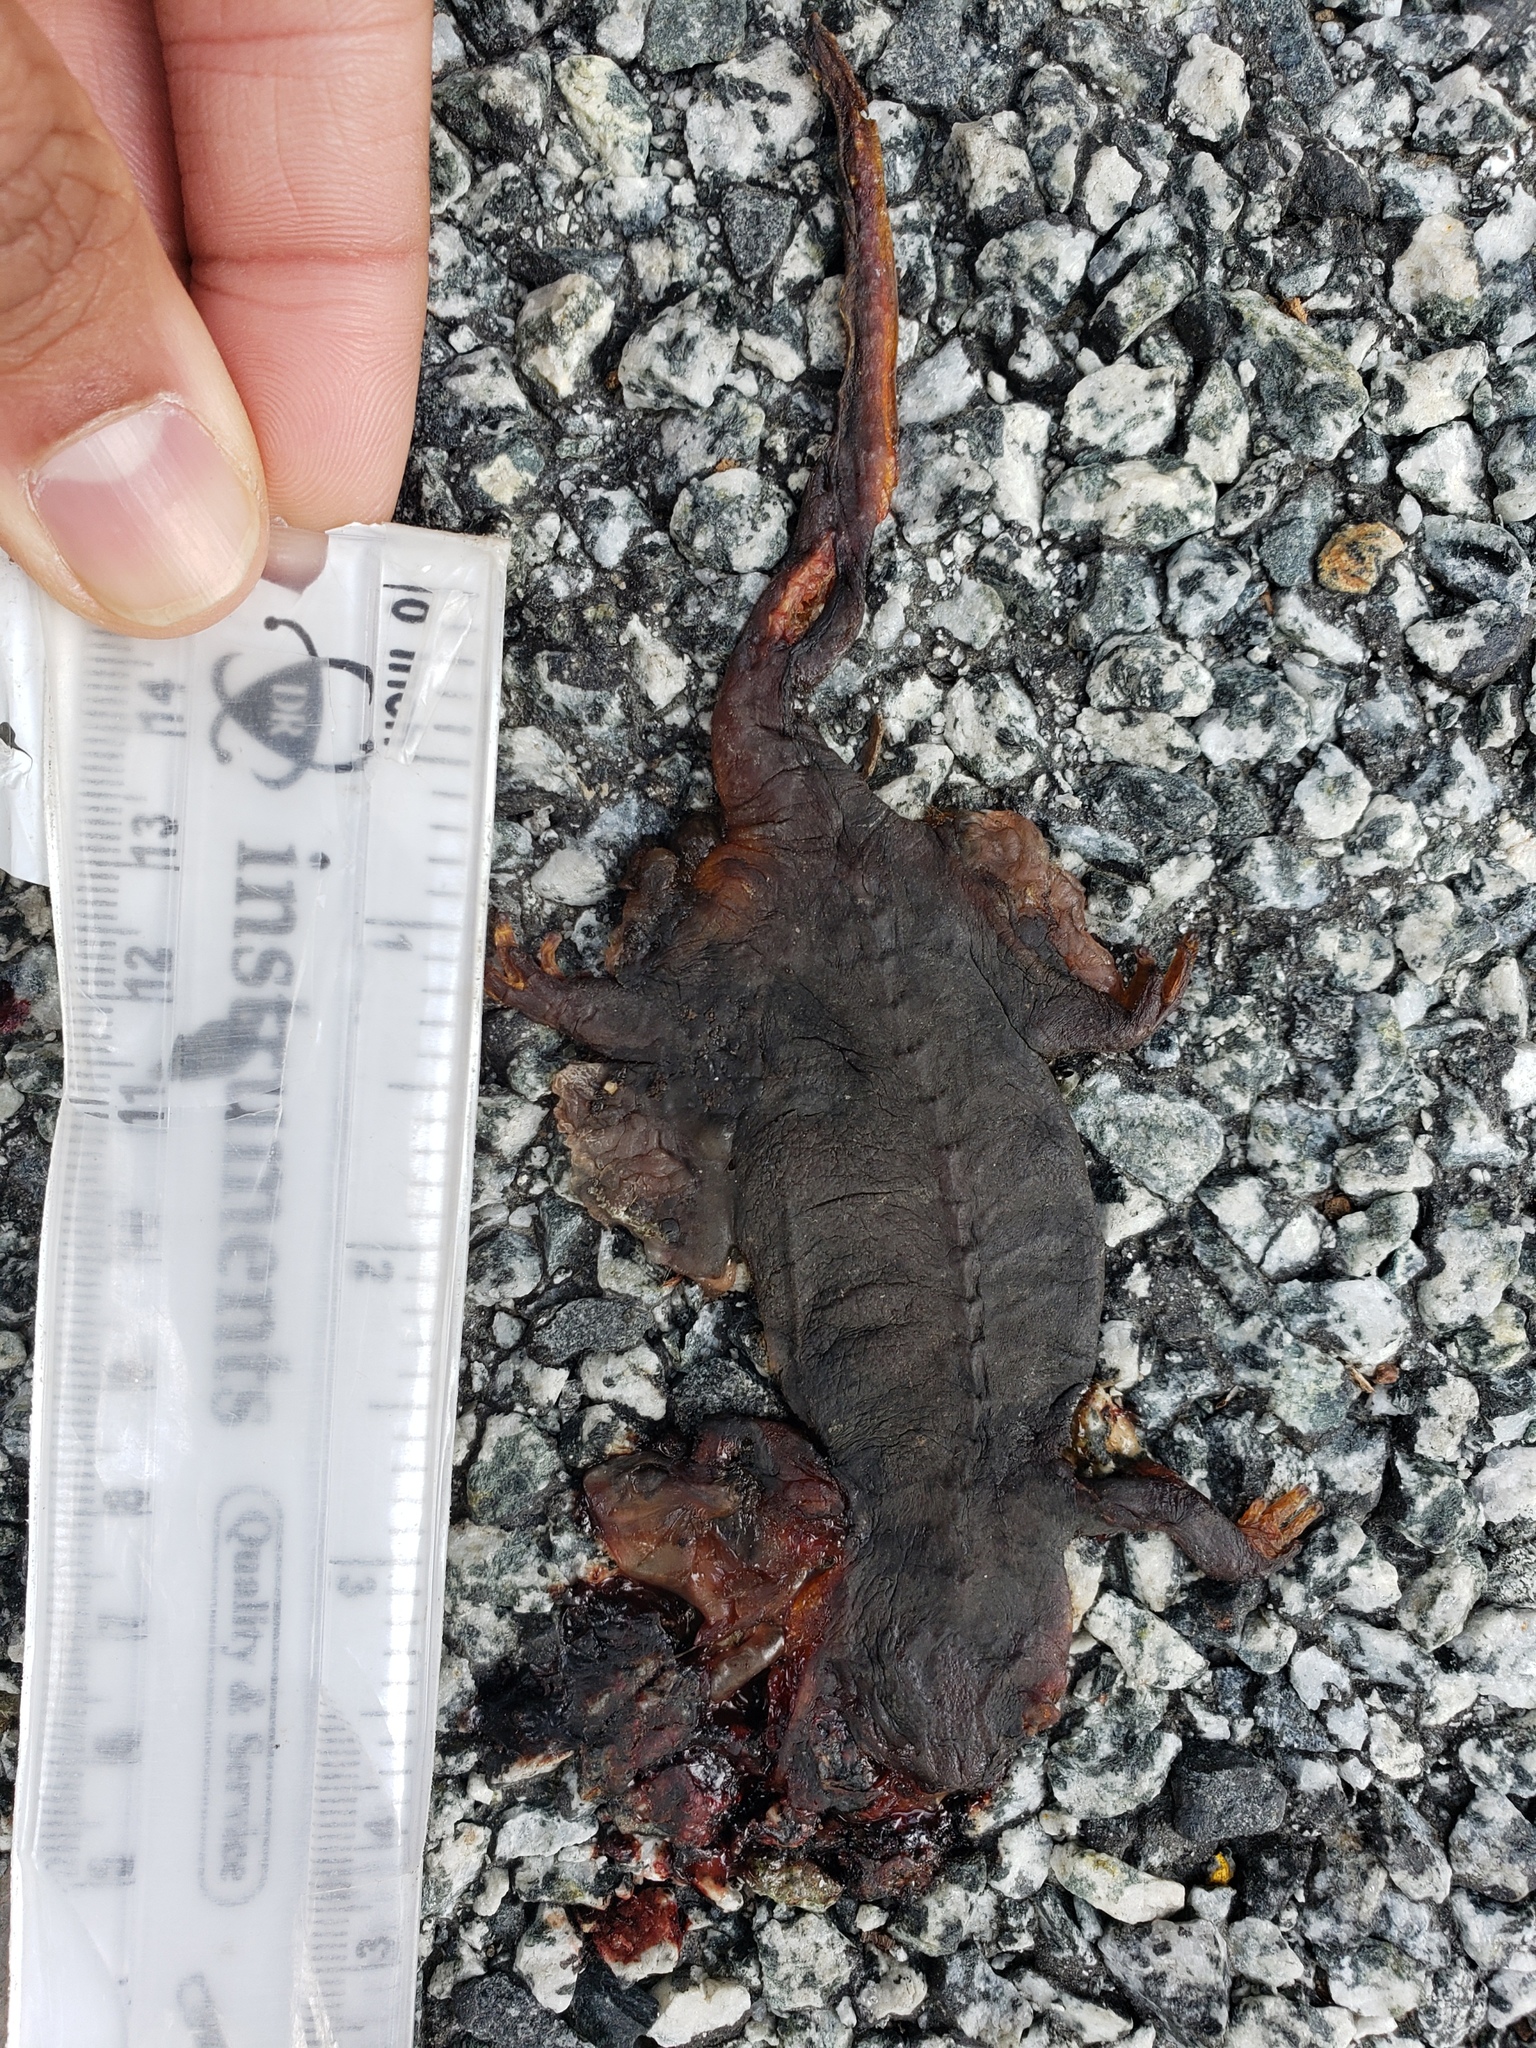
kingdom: Animalia
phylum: Chordata
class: Amphibia
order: Caudata
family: Salamandridae
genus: Taricha
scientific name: Taricha
